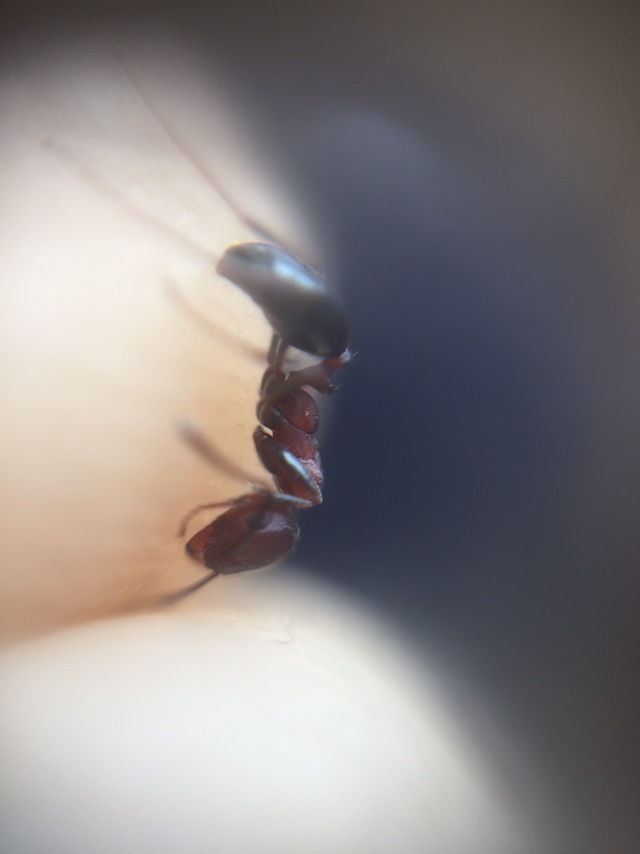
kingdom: Animalia
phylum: Arthropoda
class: Insecta
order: Hymenoptera
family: Formicidae
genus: Monomorium
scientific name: Monomorium indicum
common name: Ant
